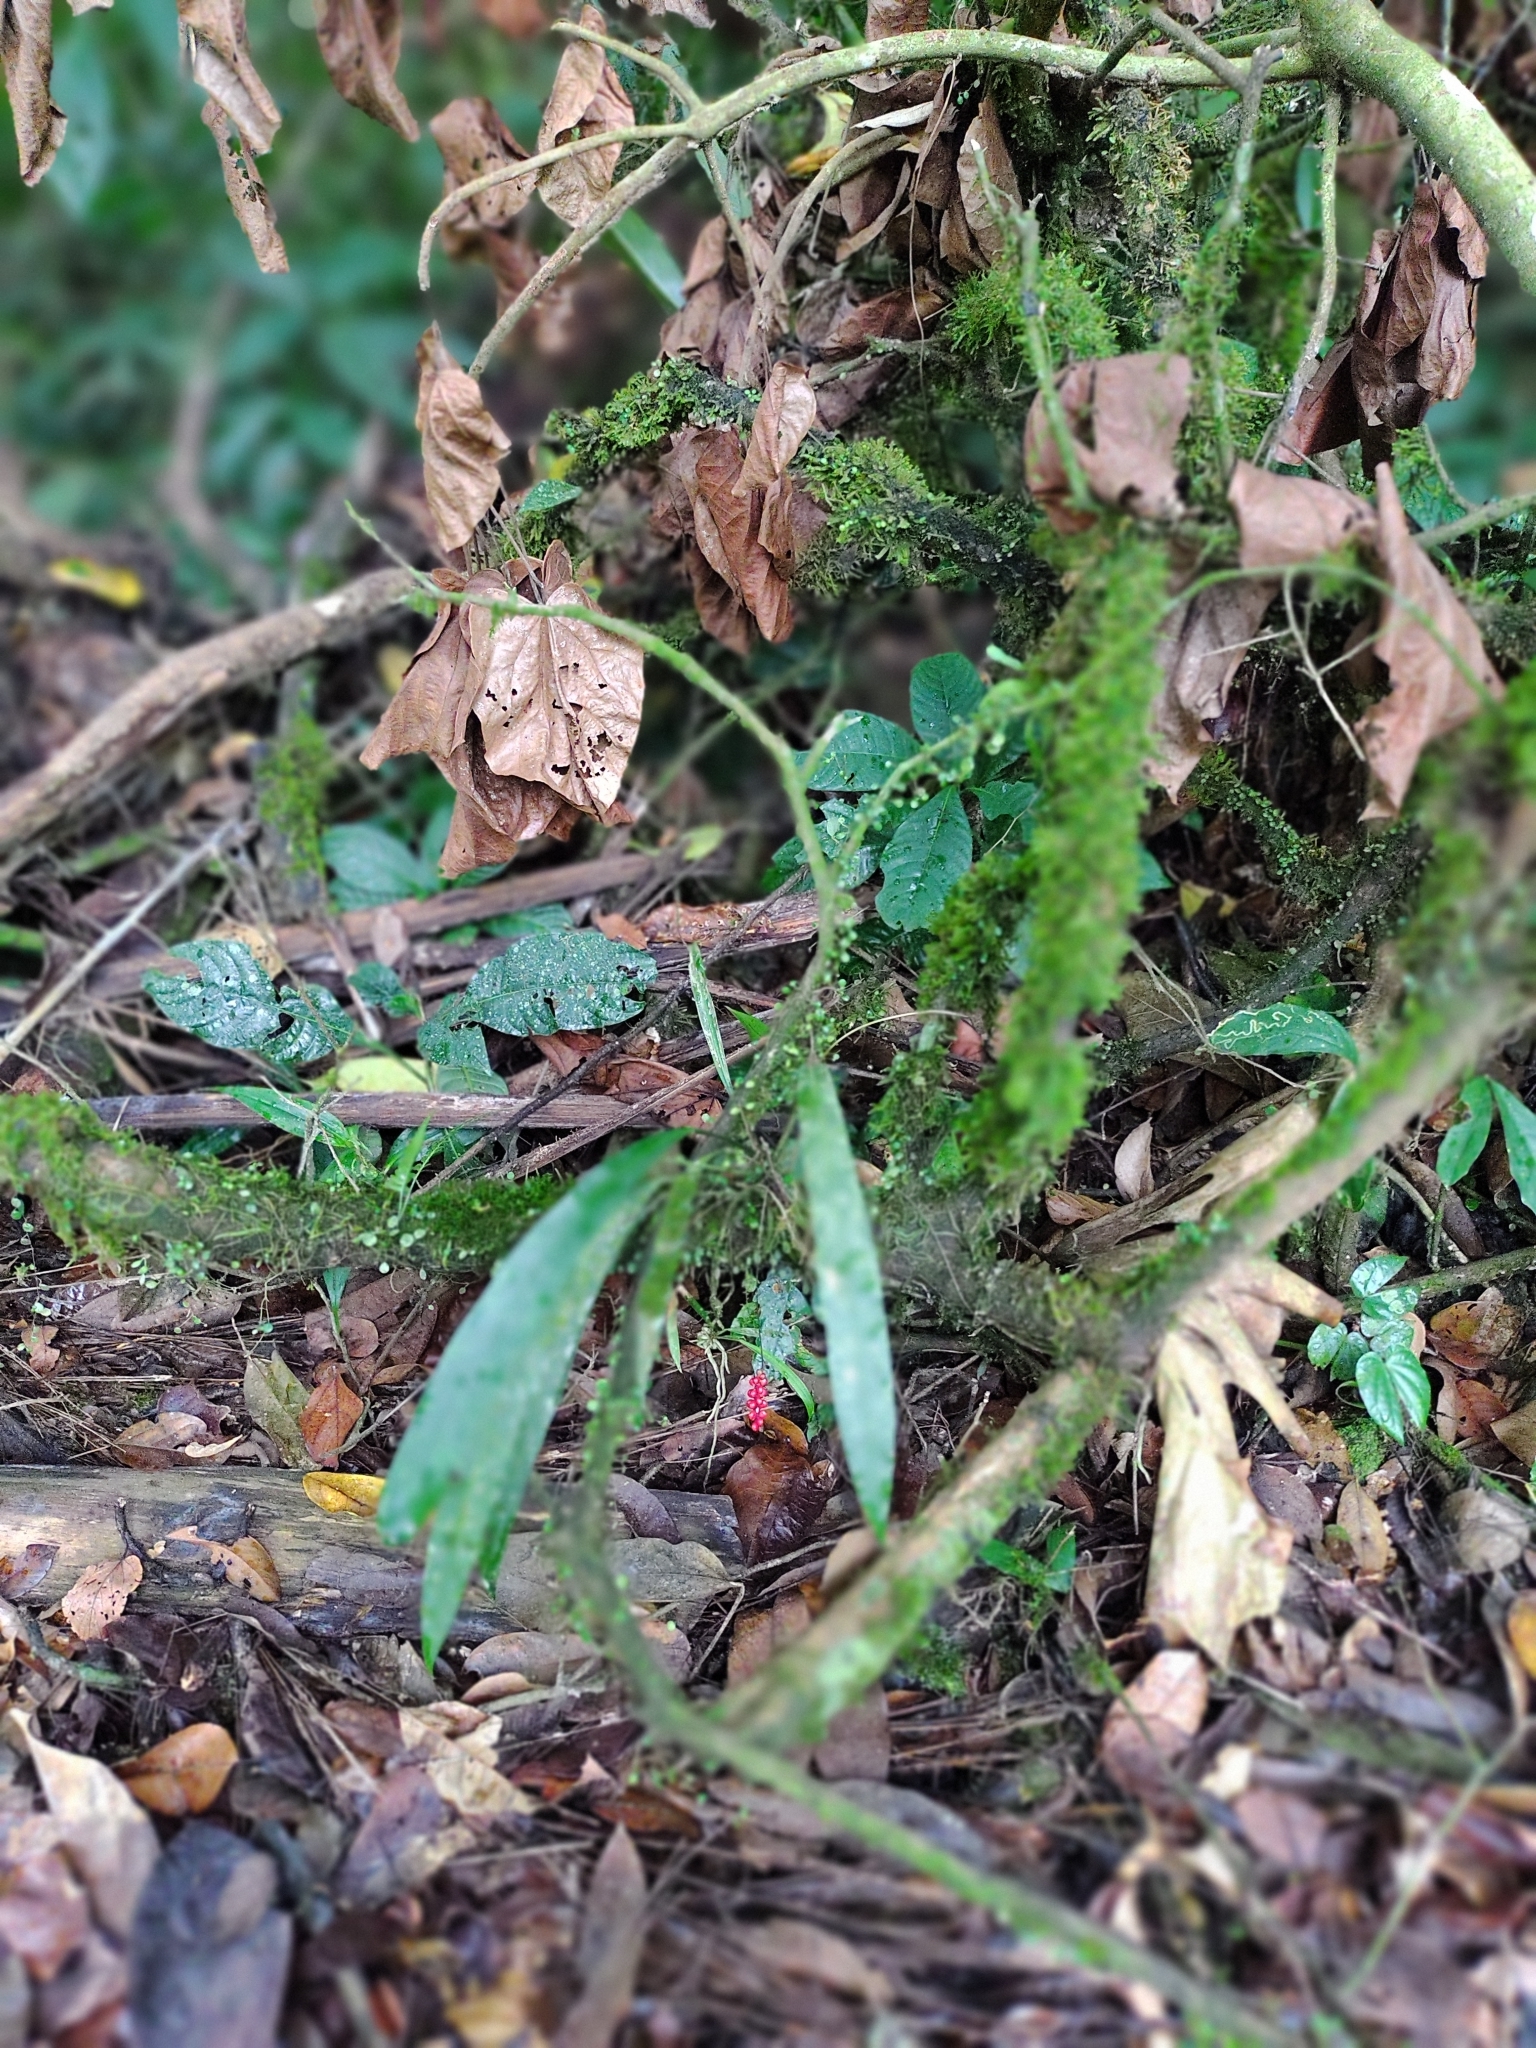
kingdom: Plantae
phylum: Tracheophyta
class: Liliopsida
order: Alismatales
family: Araceae
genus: Anthurium
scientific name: Anthurium gracile
